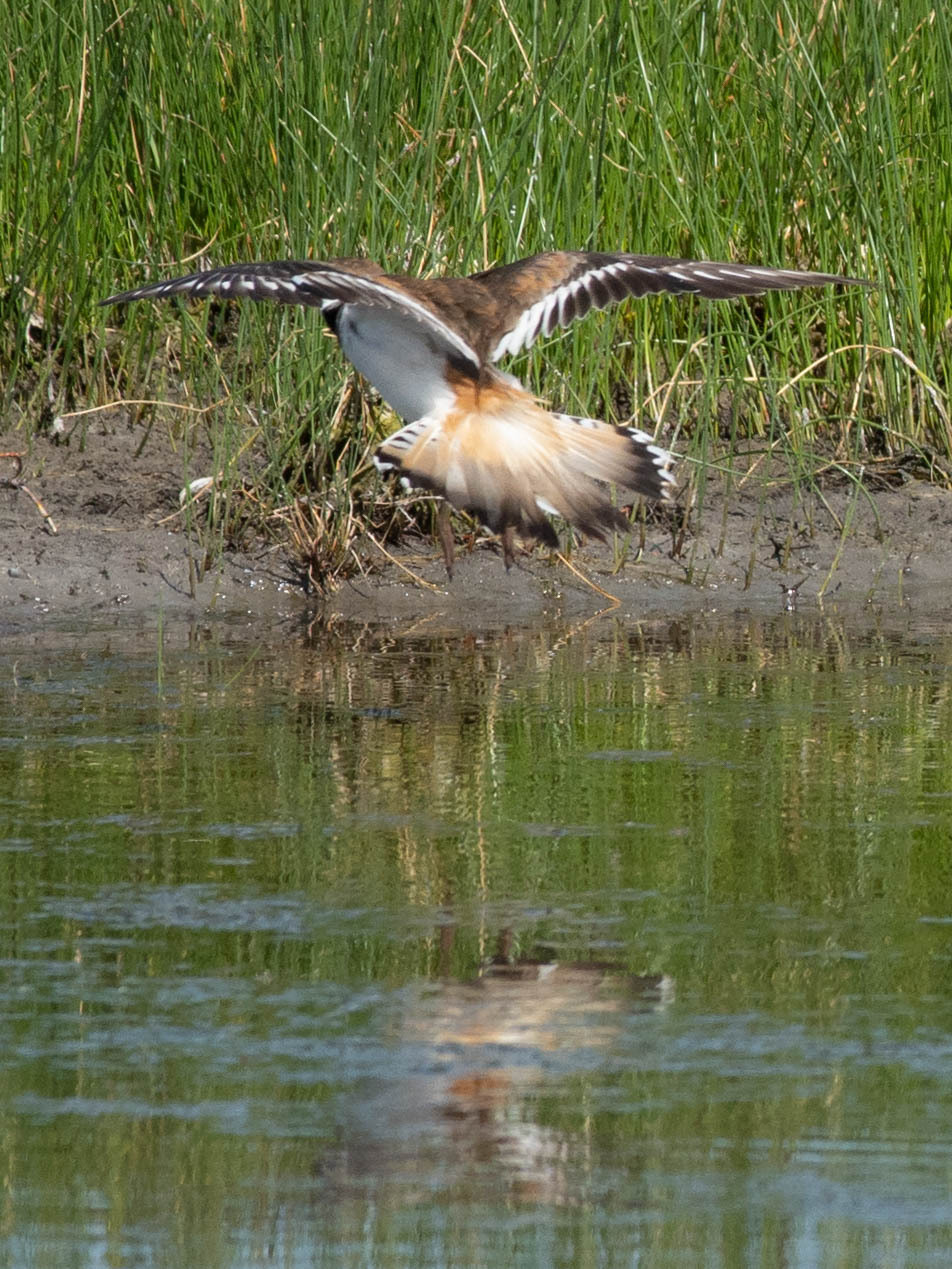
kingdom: Animalia
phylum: Chordata
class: Aves
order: Charadriiformes
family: Charadriidae
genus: Charadrius
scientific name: Charadrius vociferus
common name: Killdeer
